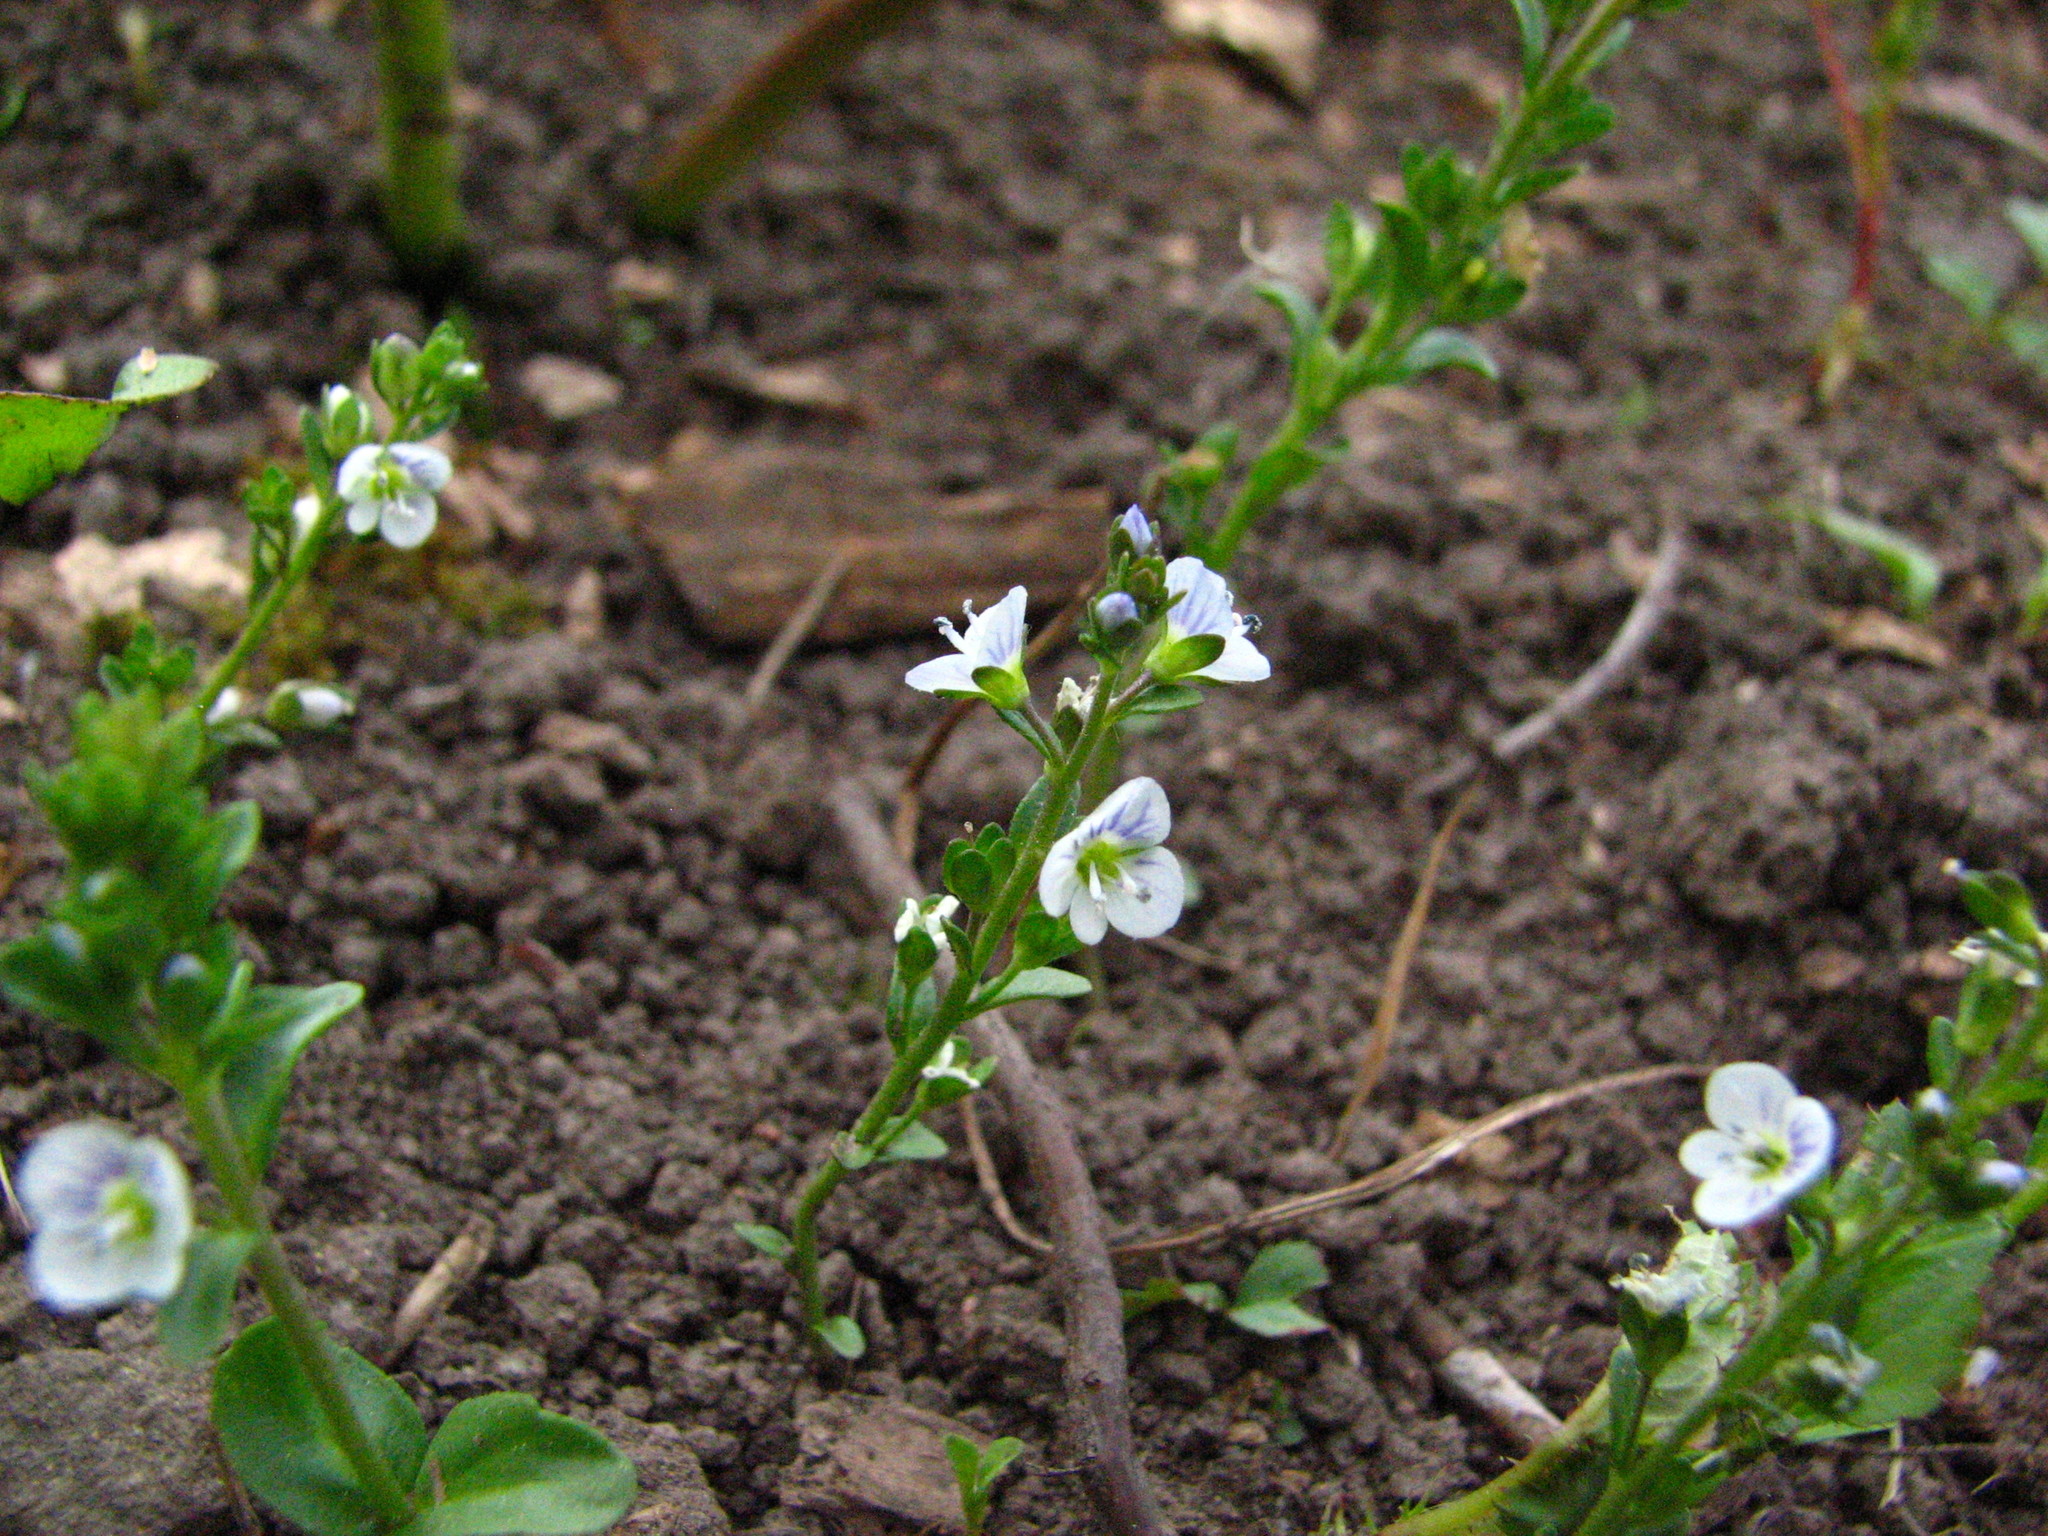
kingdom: Plantae
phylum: Tracheophyta
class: Magnoliopsida
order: Lamiales
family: Plantaginaceae
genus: Veronica
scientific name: Veronica serpyllifolia
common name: Thyme-leaved speedwell
